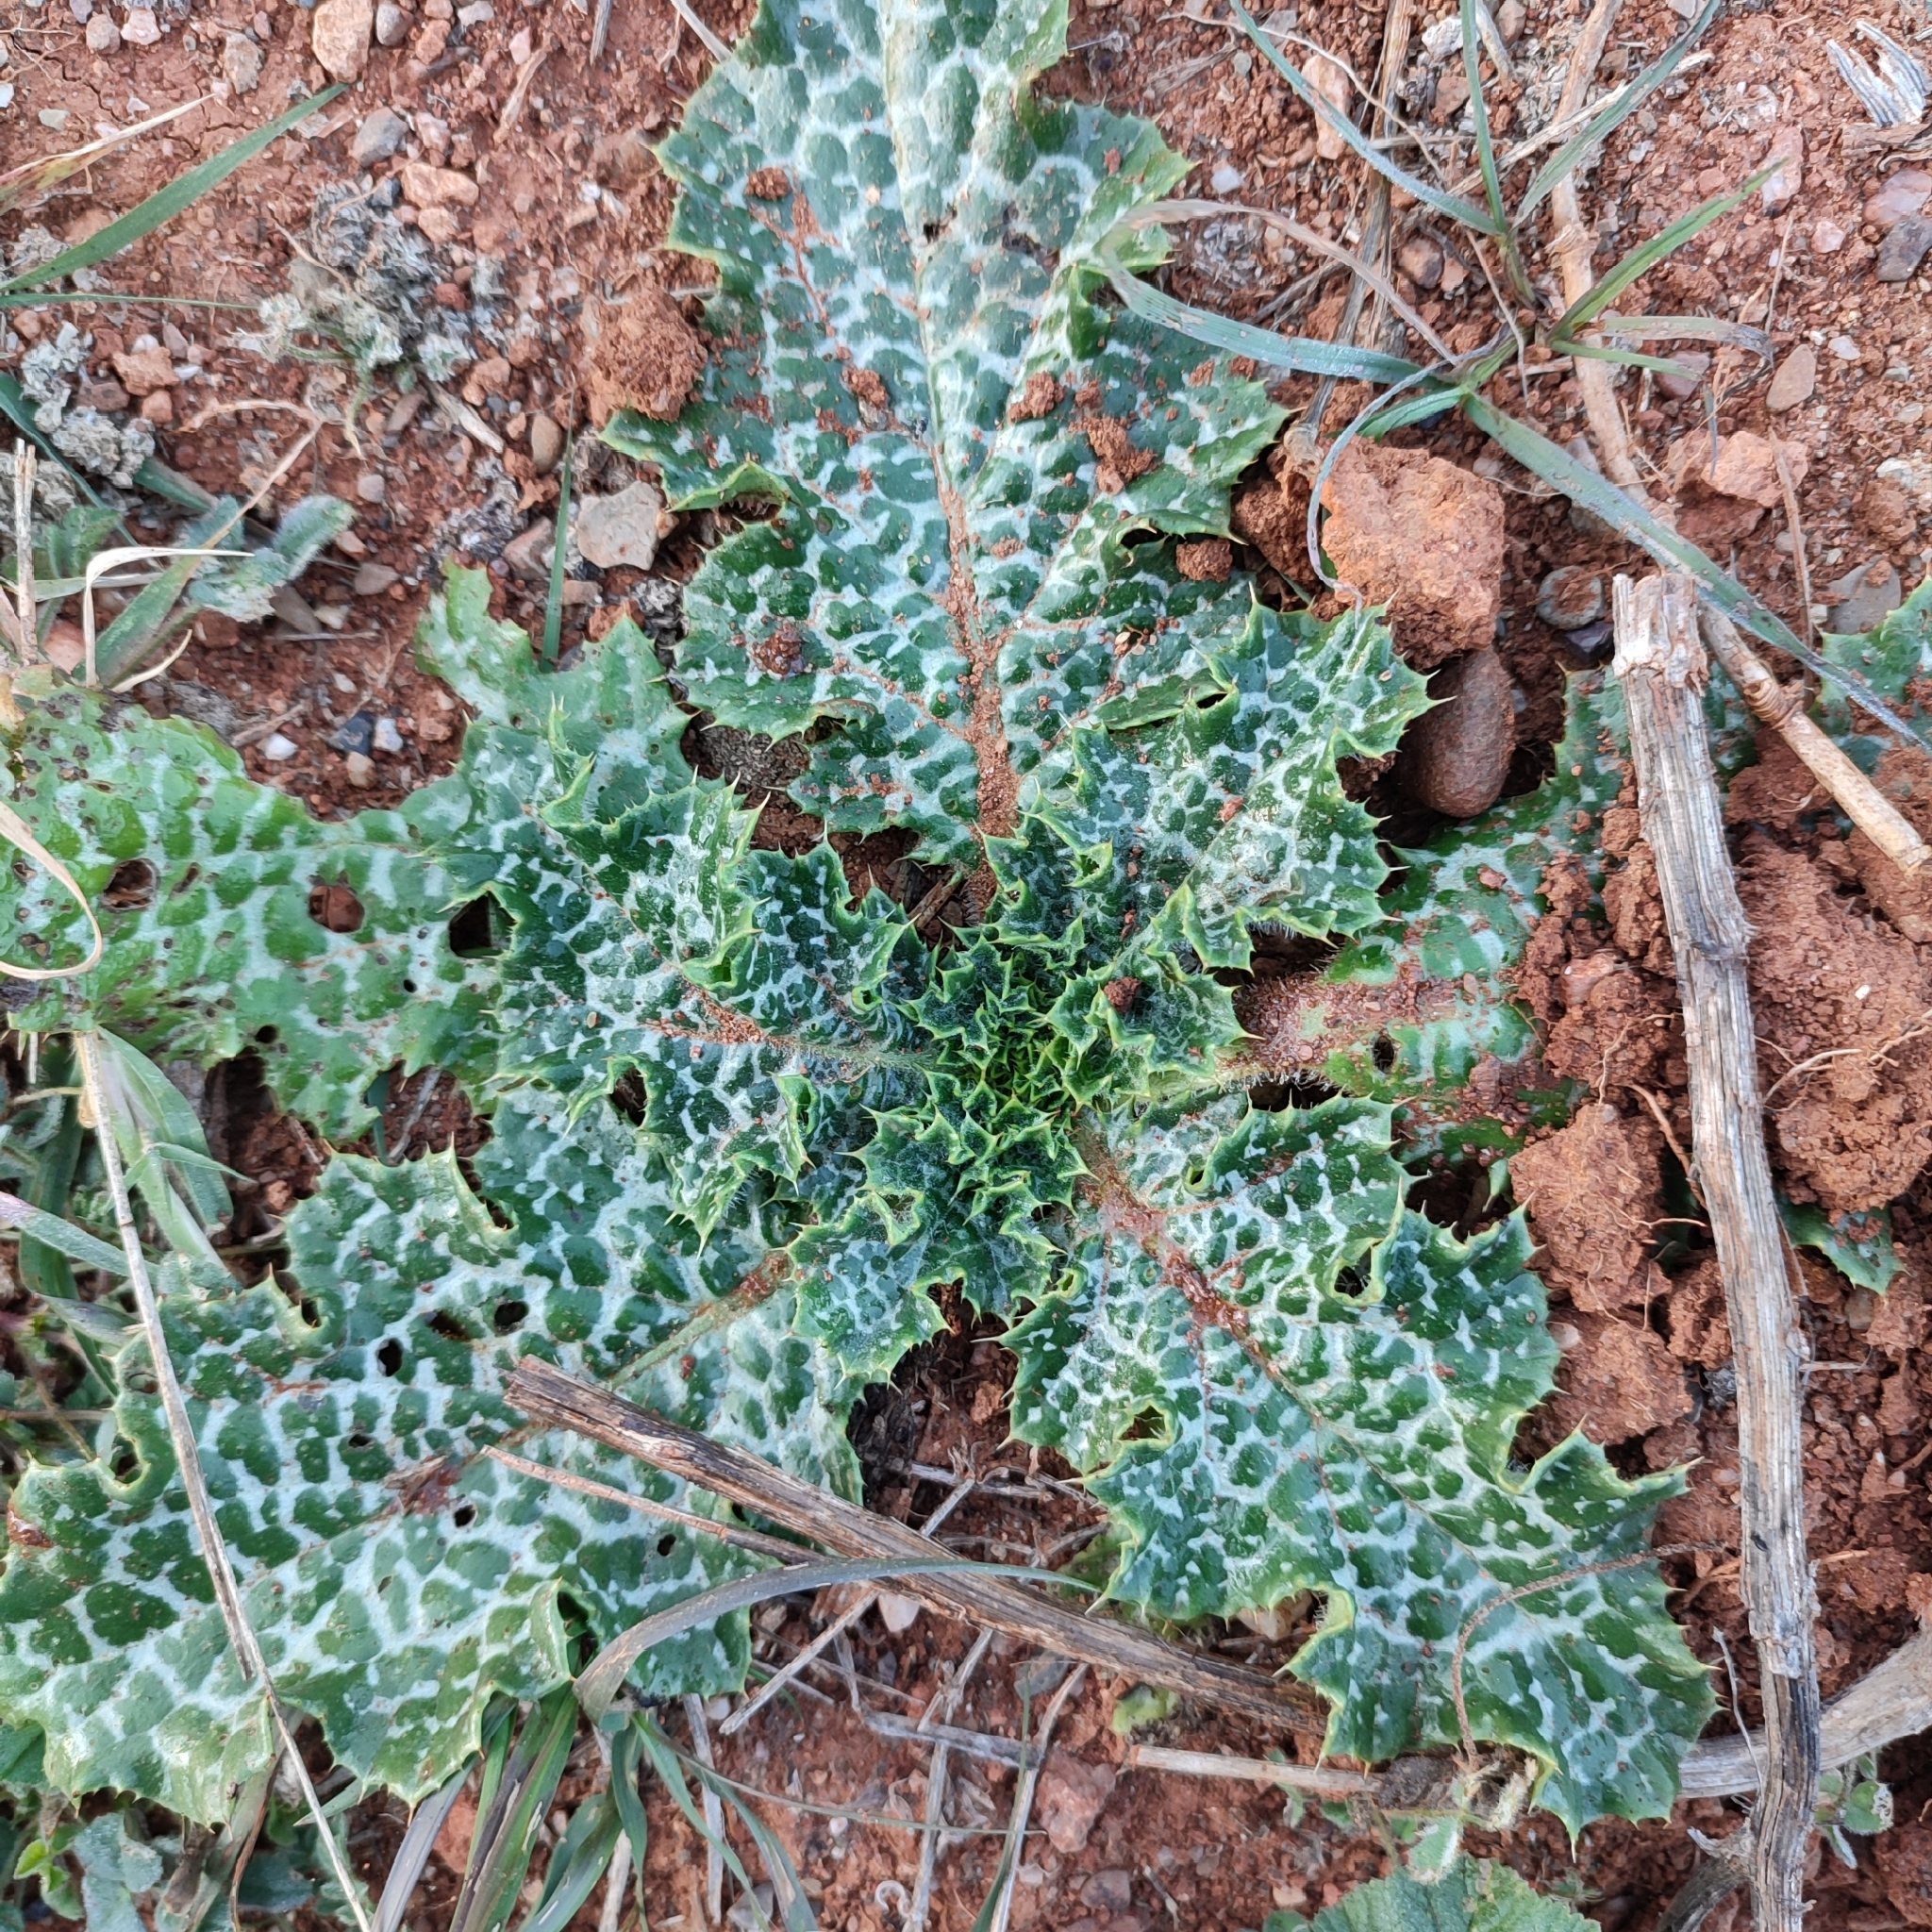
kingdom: Plantae
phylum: Tracheophyta
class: Magnoliopsida
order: Asterales
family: Asteraceae
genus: Silybum
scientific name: Silybum marianum
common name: Milk thistle
